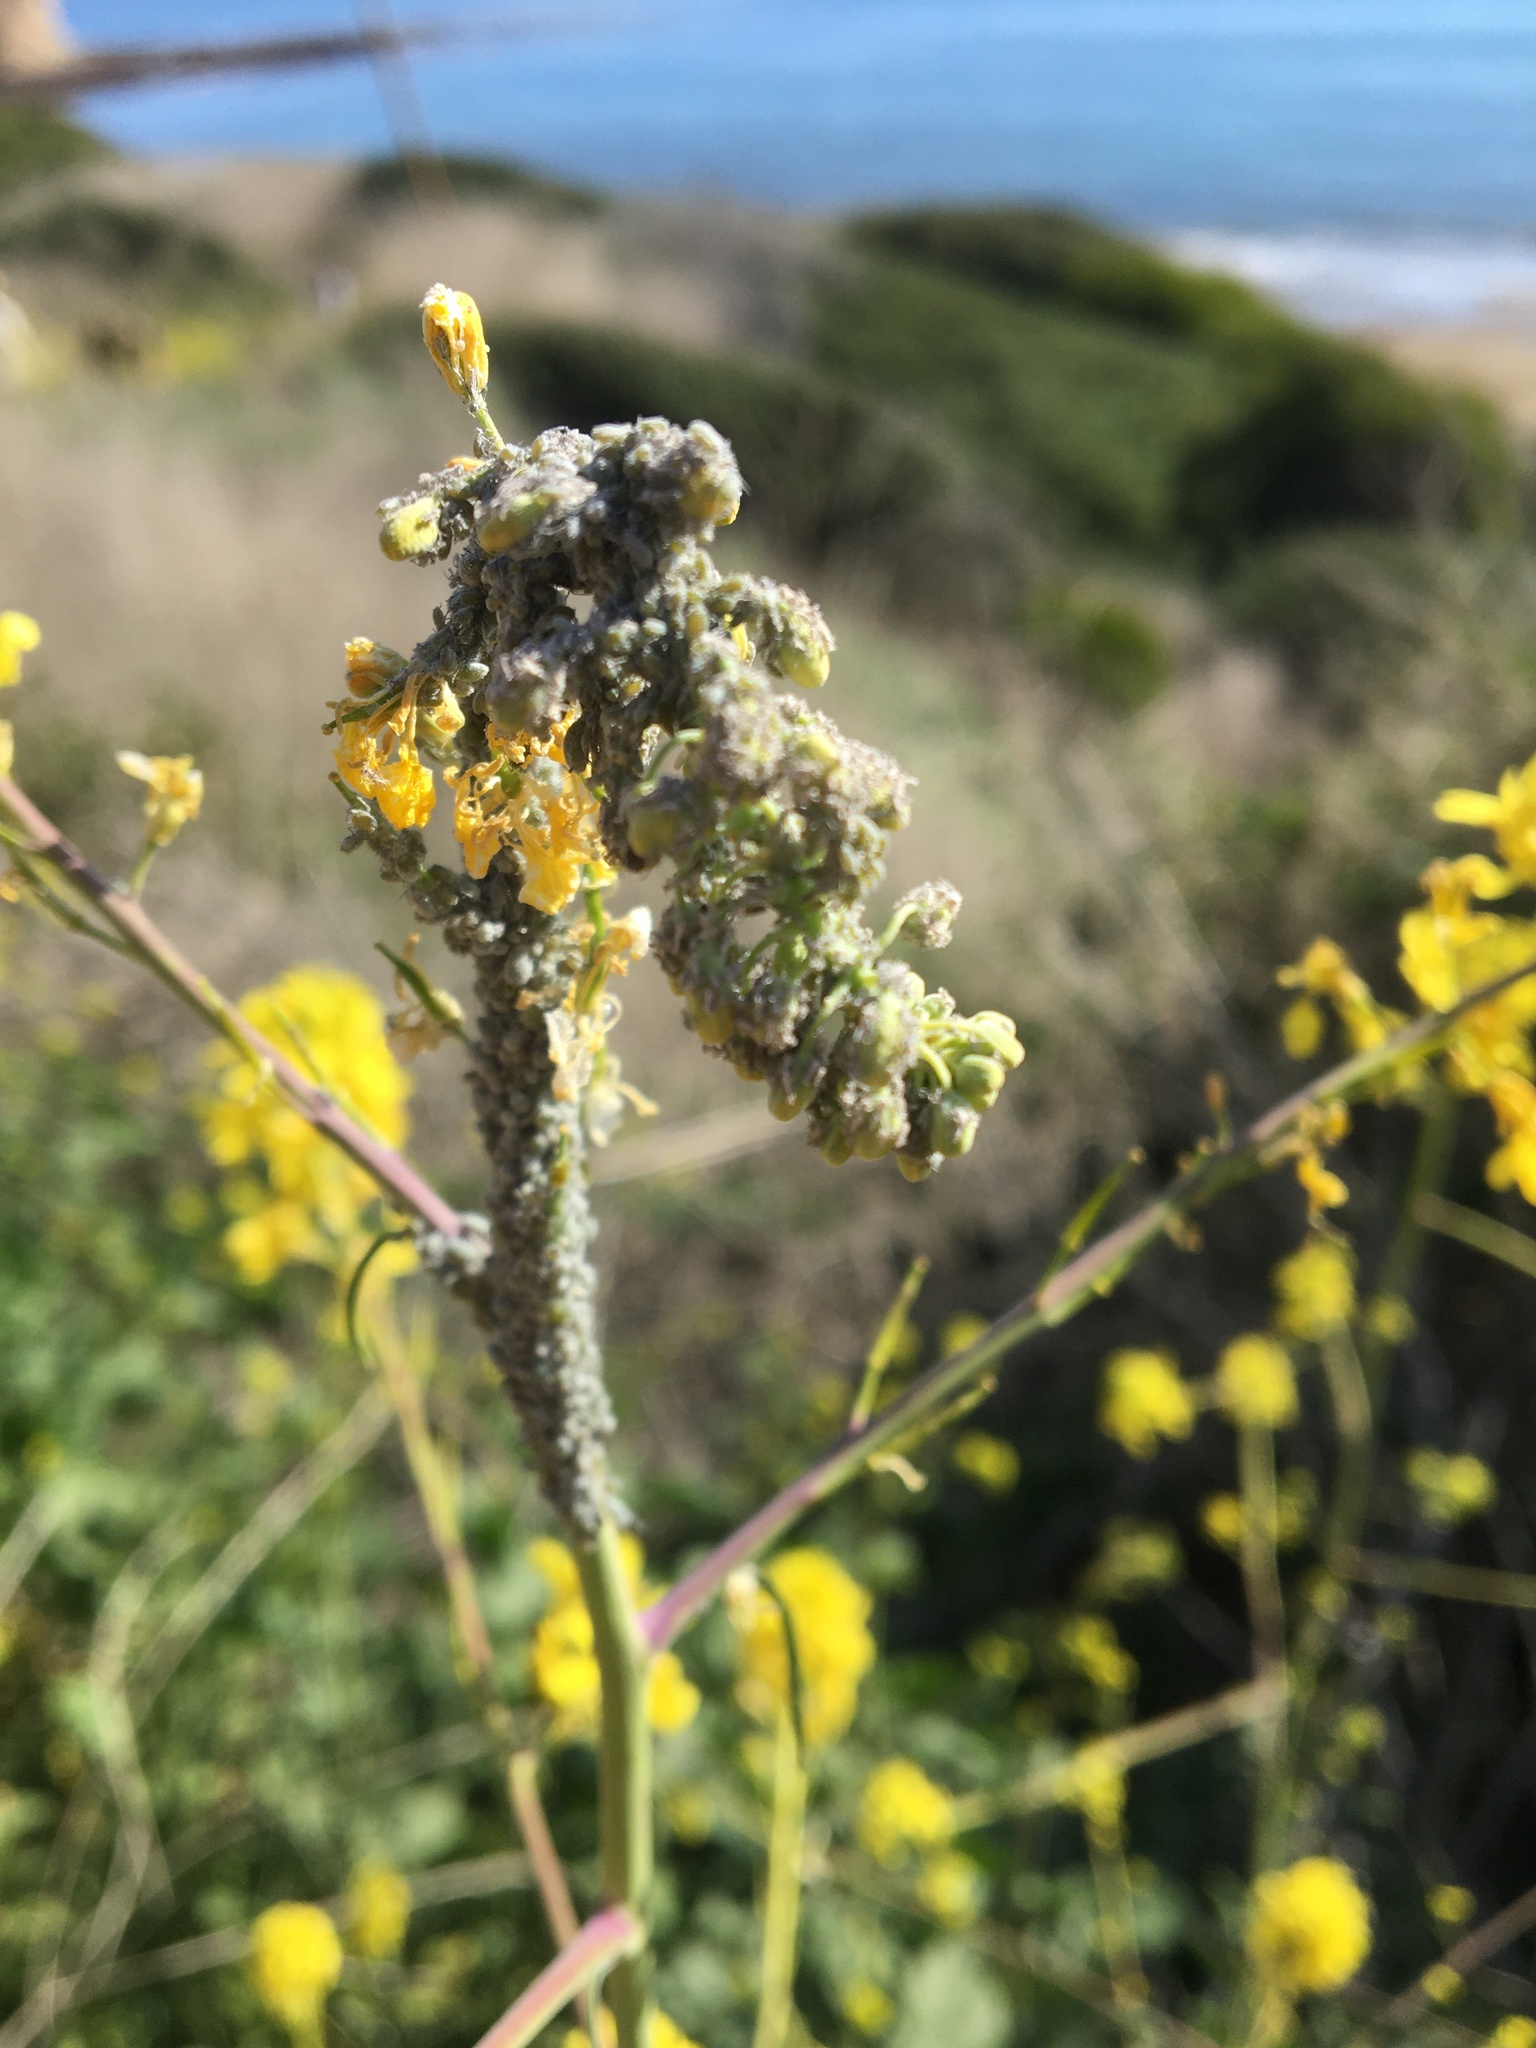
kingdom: Animalia
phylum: Arthropoda
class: Insecta
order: Hemiptera
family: Aphididae
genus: Brevicoryne
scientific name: Brevicoryne brassicae
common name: Cabbage aphid
